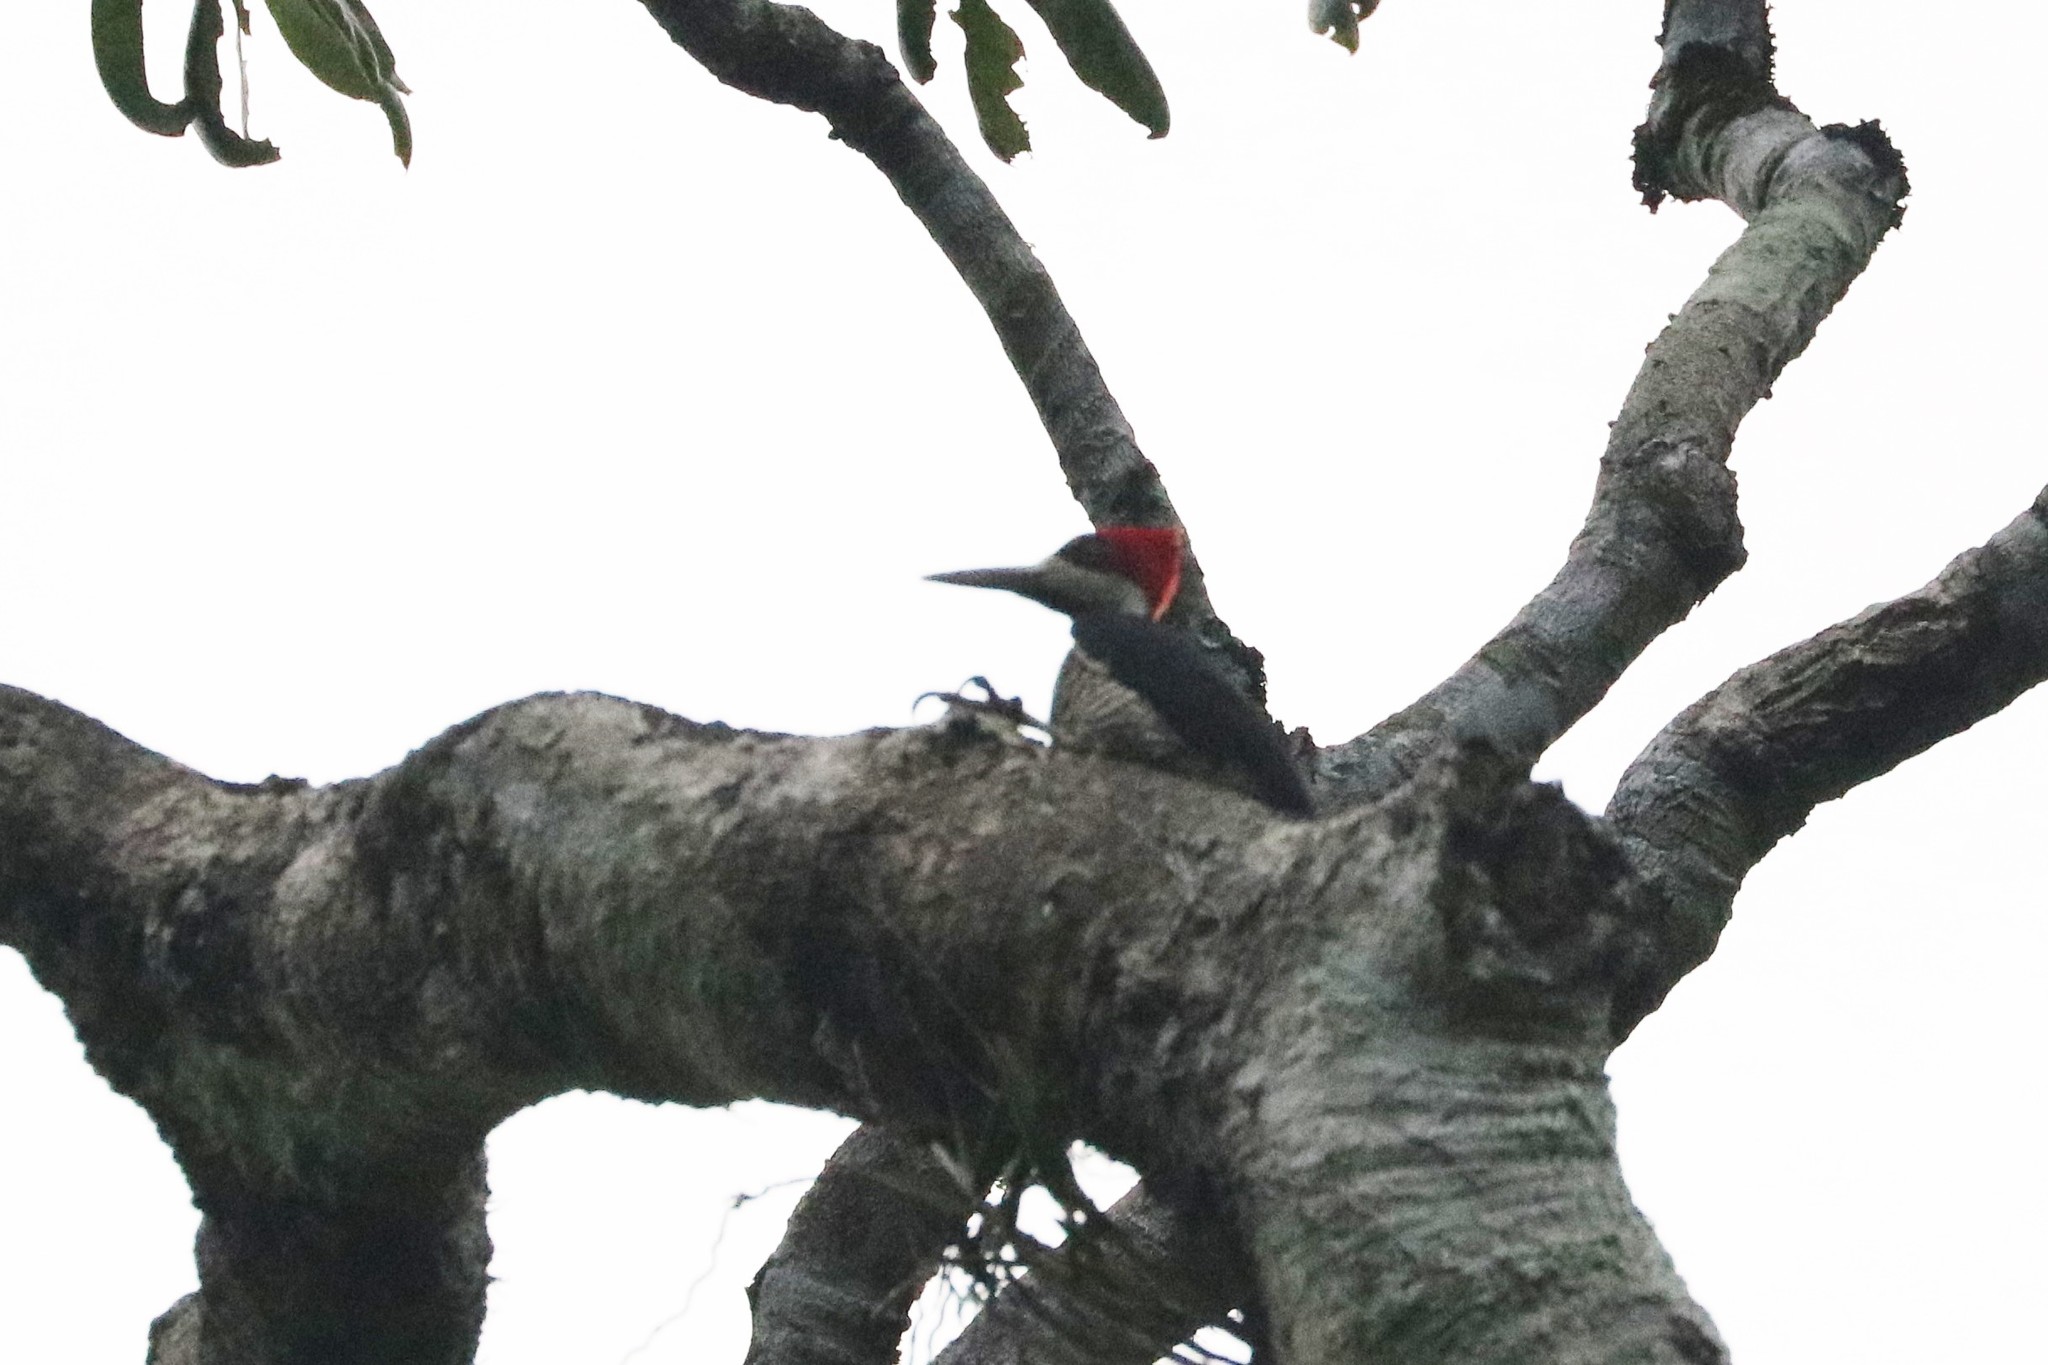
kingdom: Animalia
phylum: Chordata
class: Aves
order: Piciformes
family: Picidae
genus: Campephilus
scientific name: Campephilus melanoleucos
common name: Crimson-crested woodpecker
